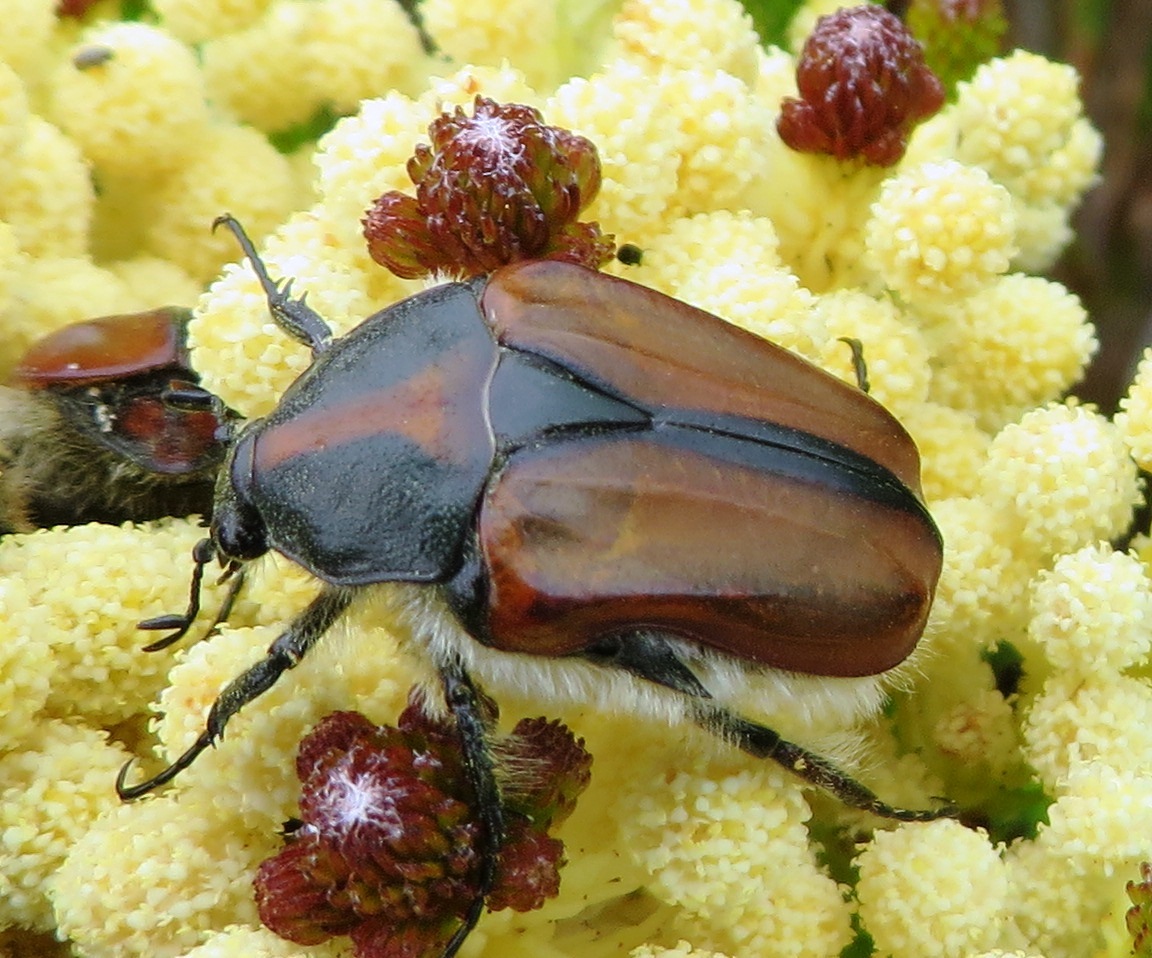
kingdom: Animalia
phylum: Arthropoda
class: Insecta
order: Coleoptera
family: Scarabaeidae
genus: Trichostetha
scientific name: Trichostetha capensis
